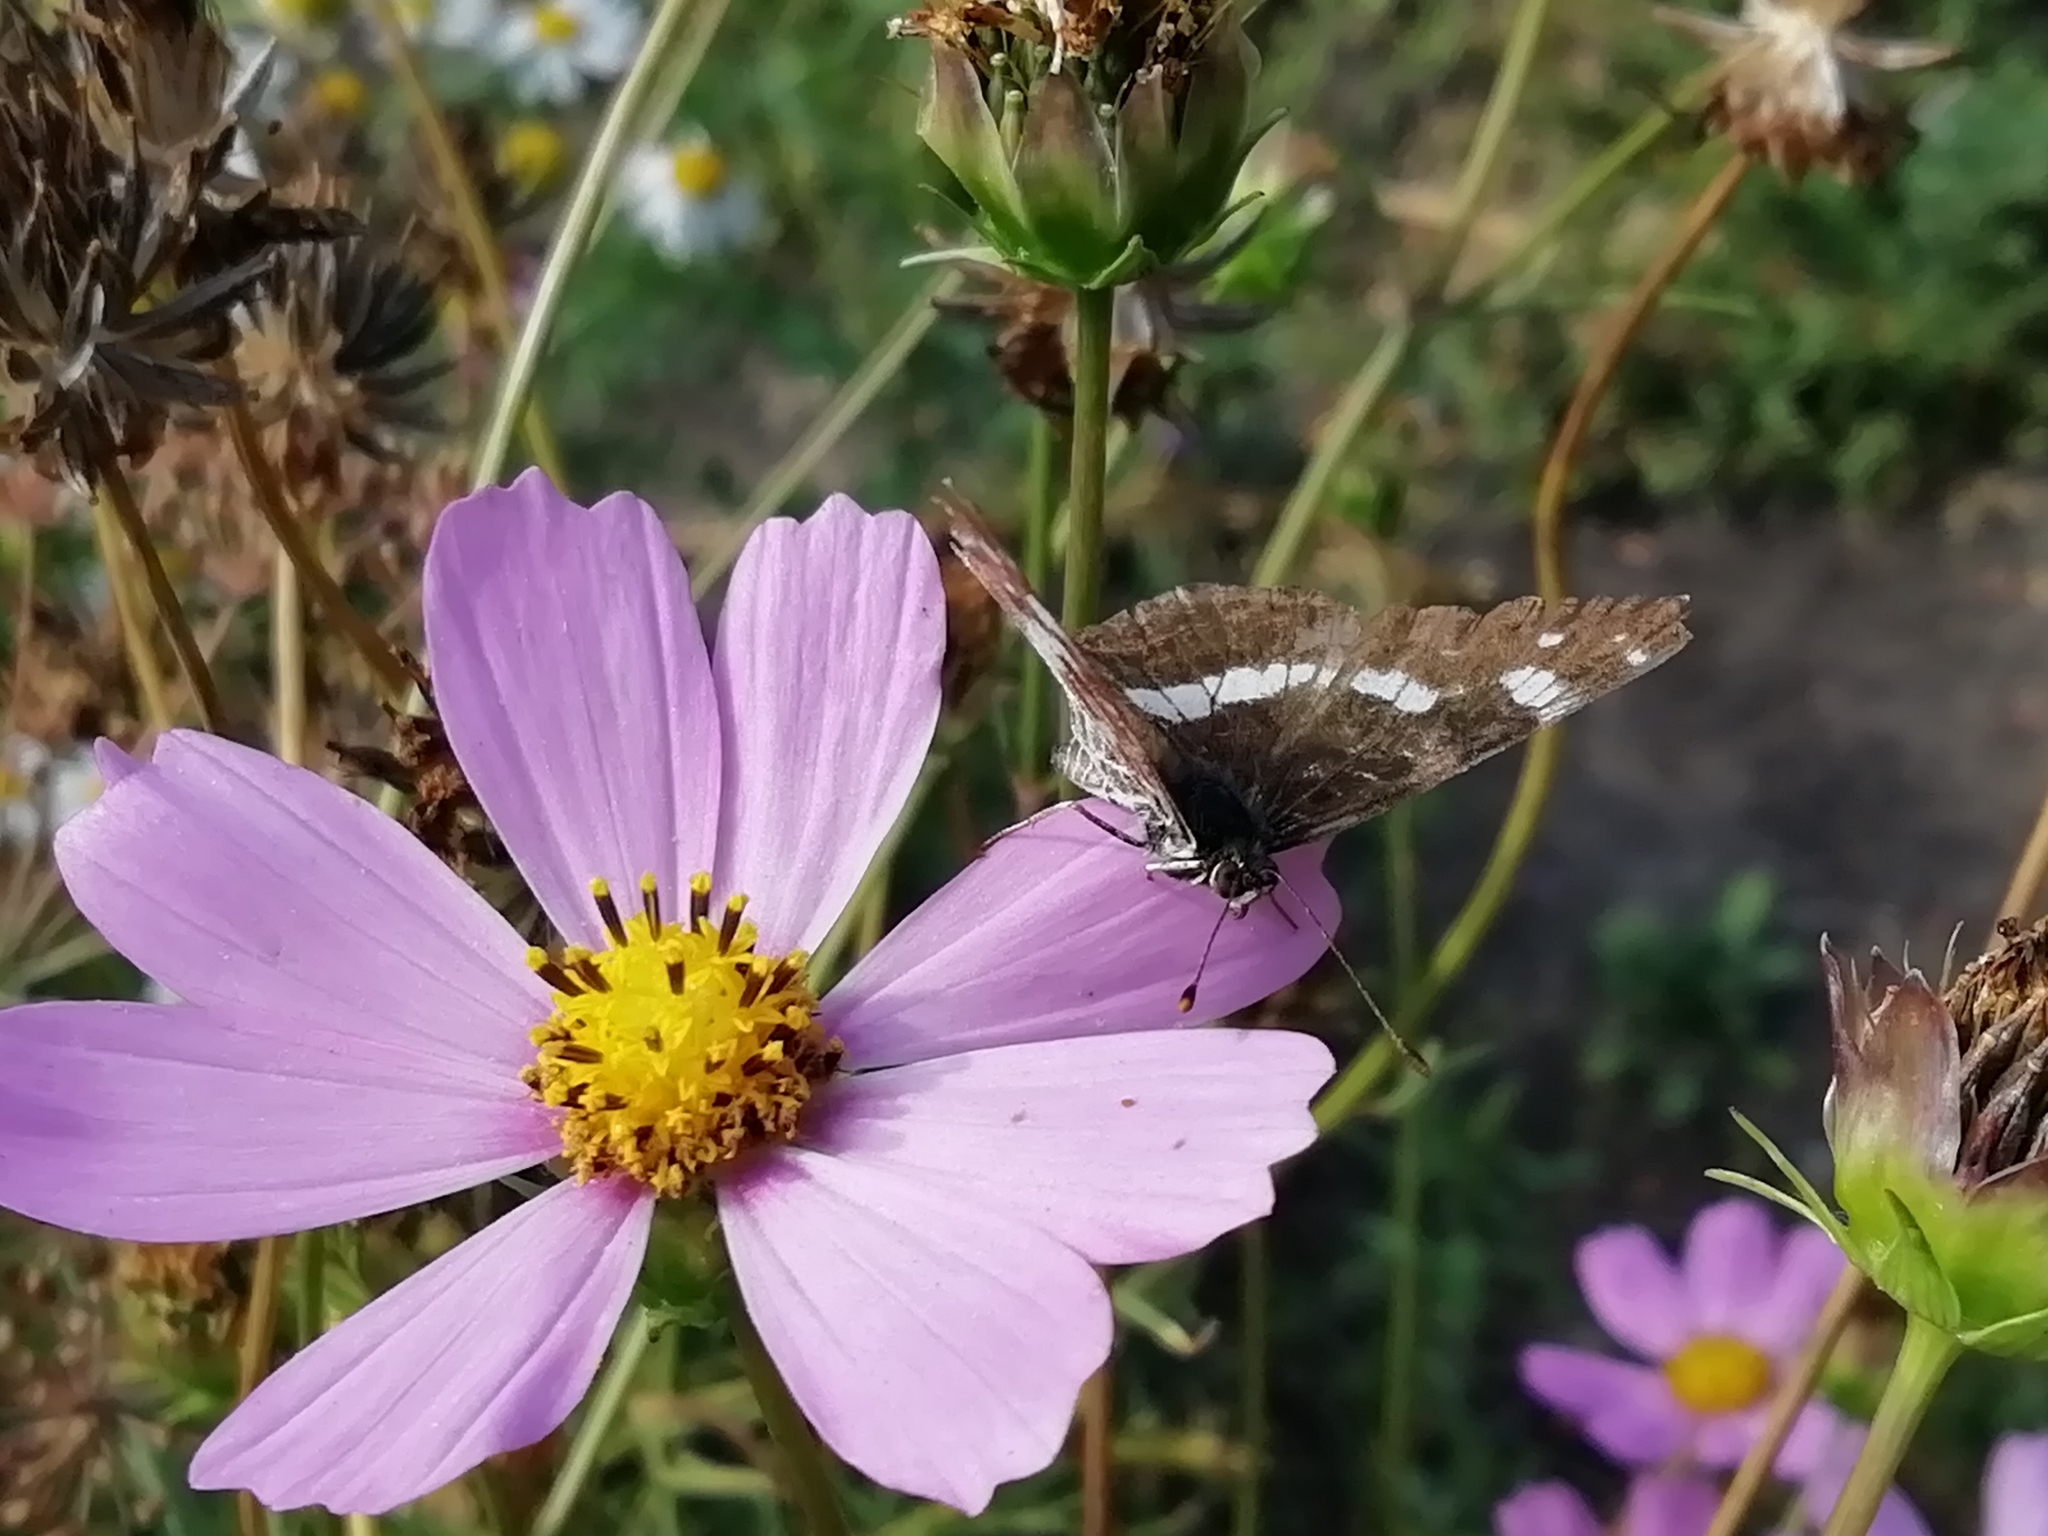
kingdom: Animalia
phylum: Arthropoda
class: Insecta
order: Lepidoptera
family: Nymphalidae
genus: Araschnia
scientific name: Araschnia levana
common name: Map butterfly
